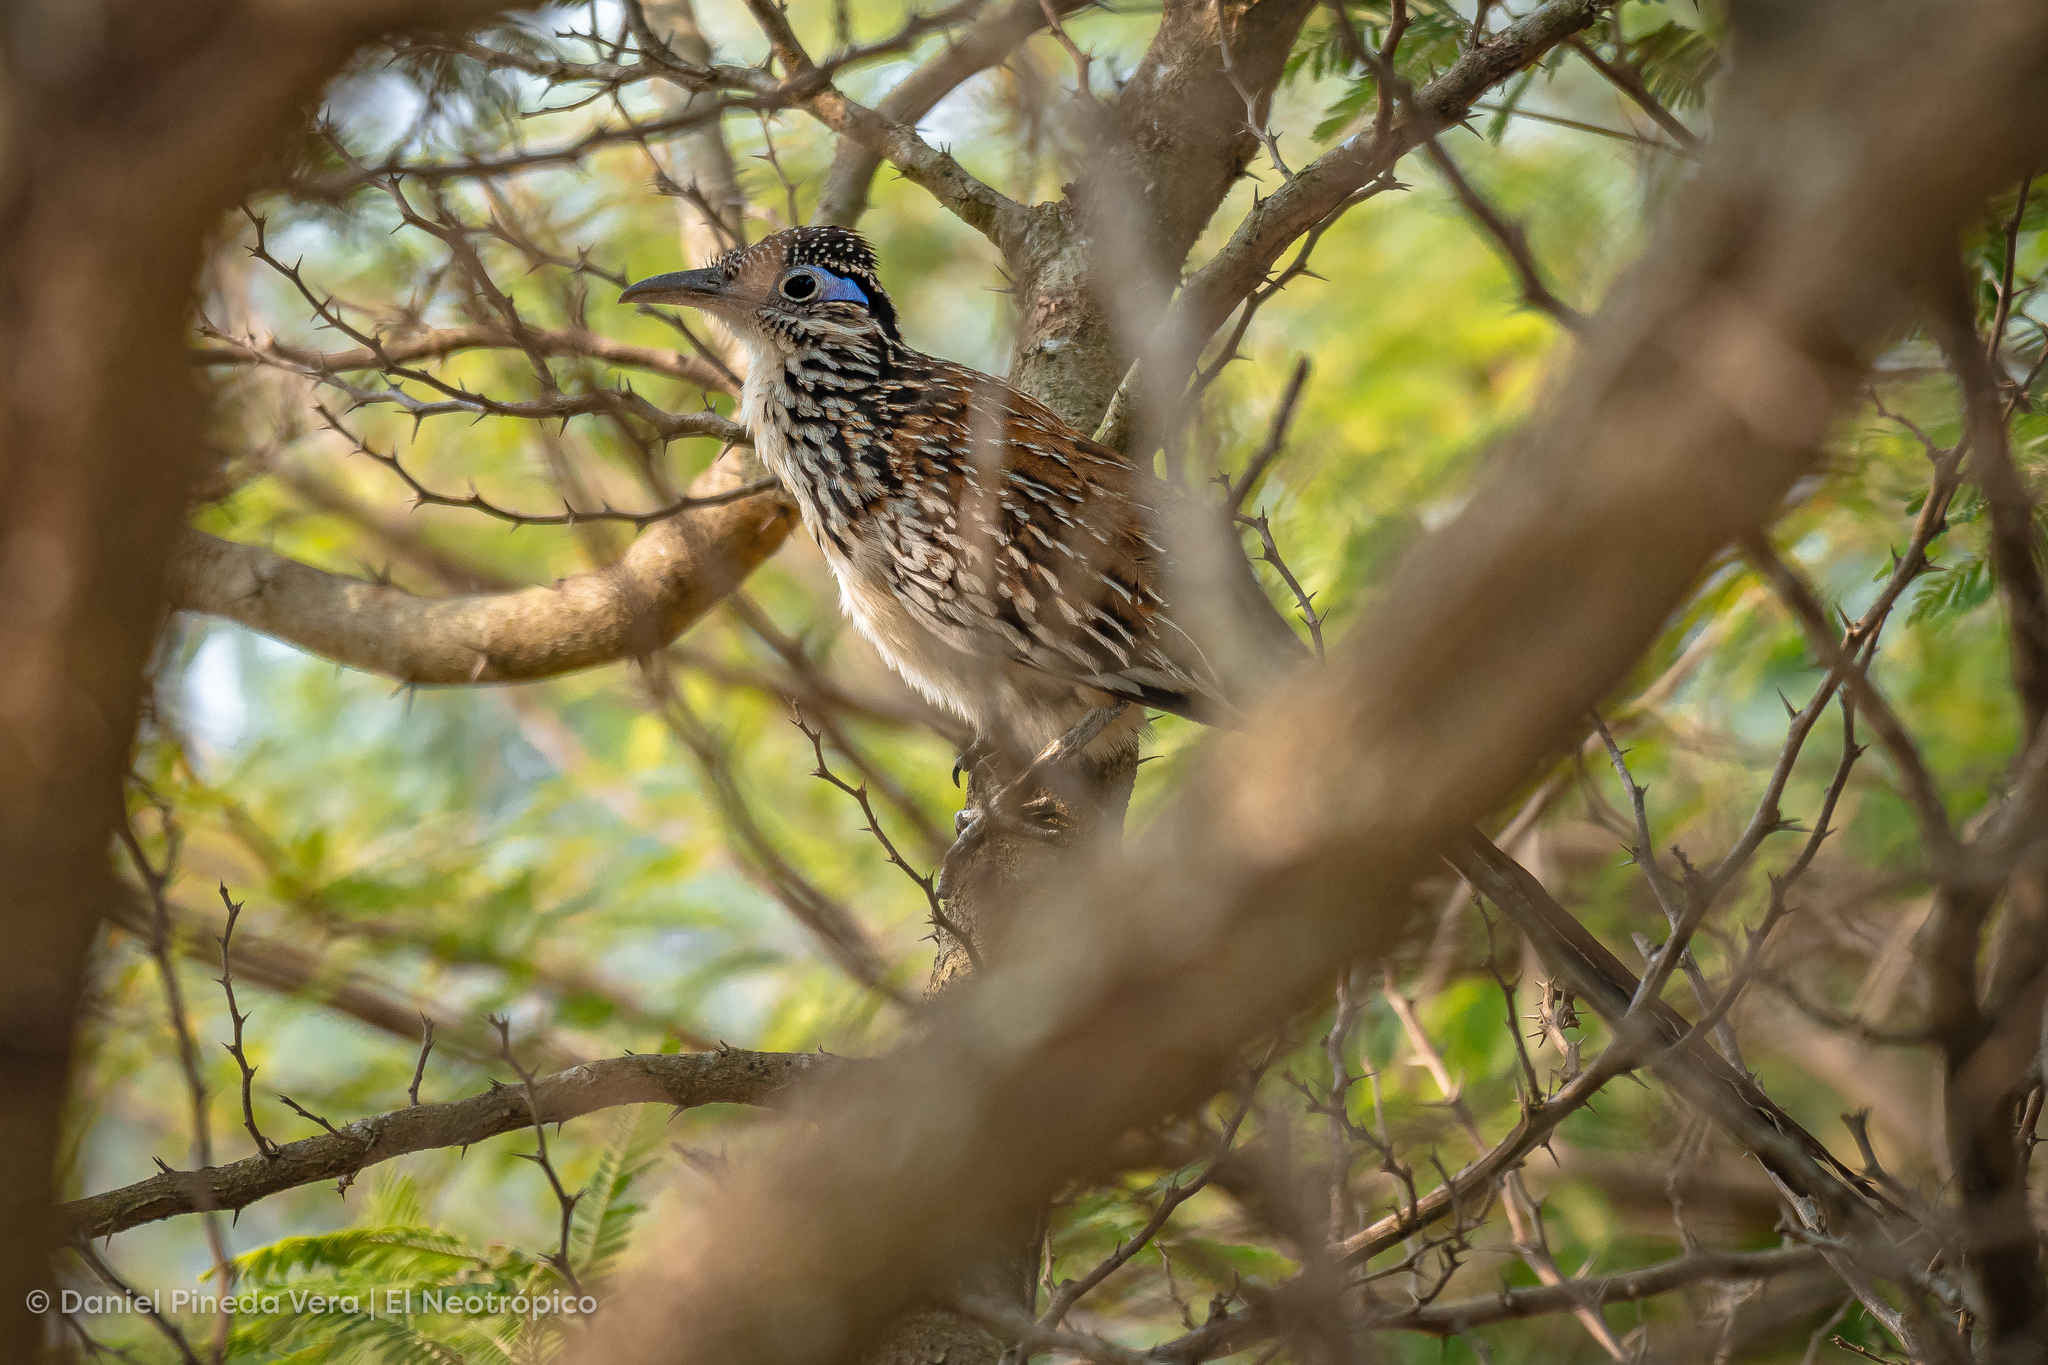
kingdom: Animalia
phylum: Chordata
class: Aves
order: Cuculiformes
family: Cuculidae
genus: Geococcyx
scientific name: Geococcyx velox
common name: Lesser roadrunner
